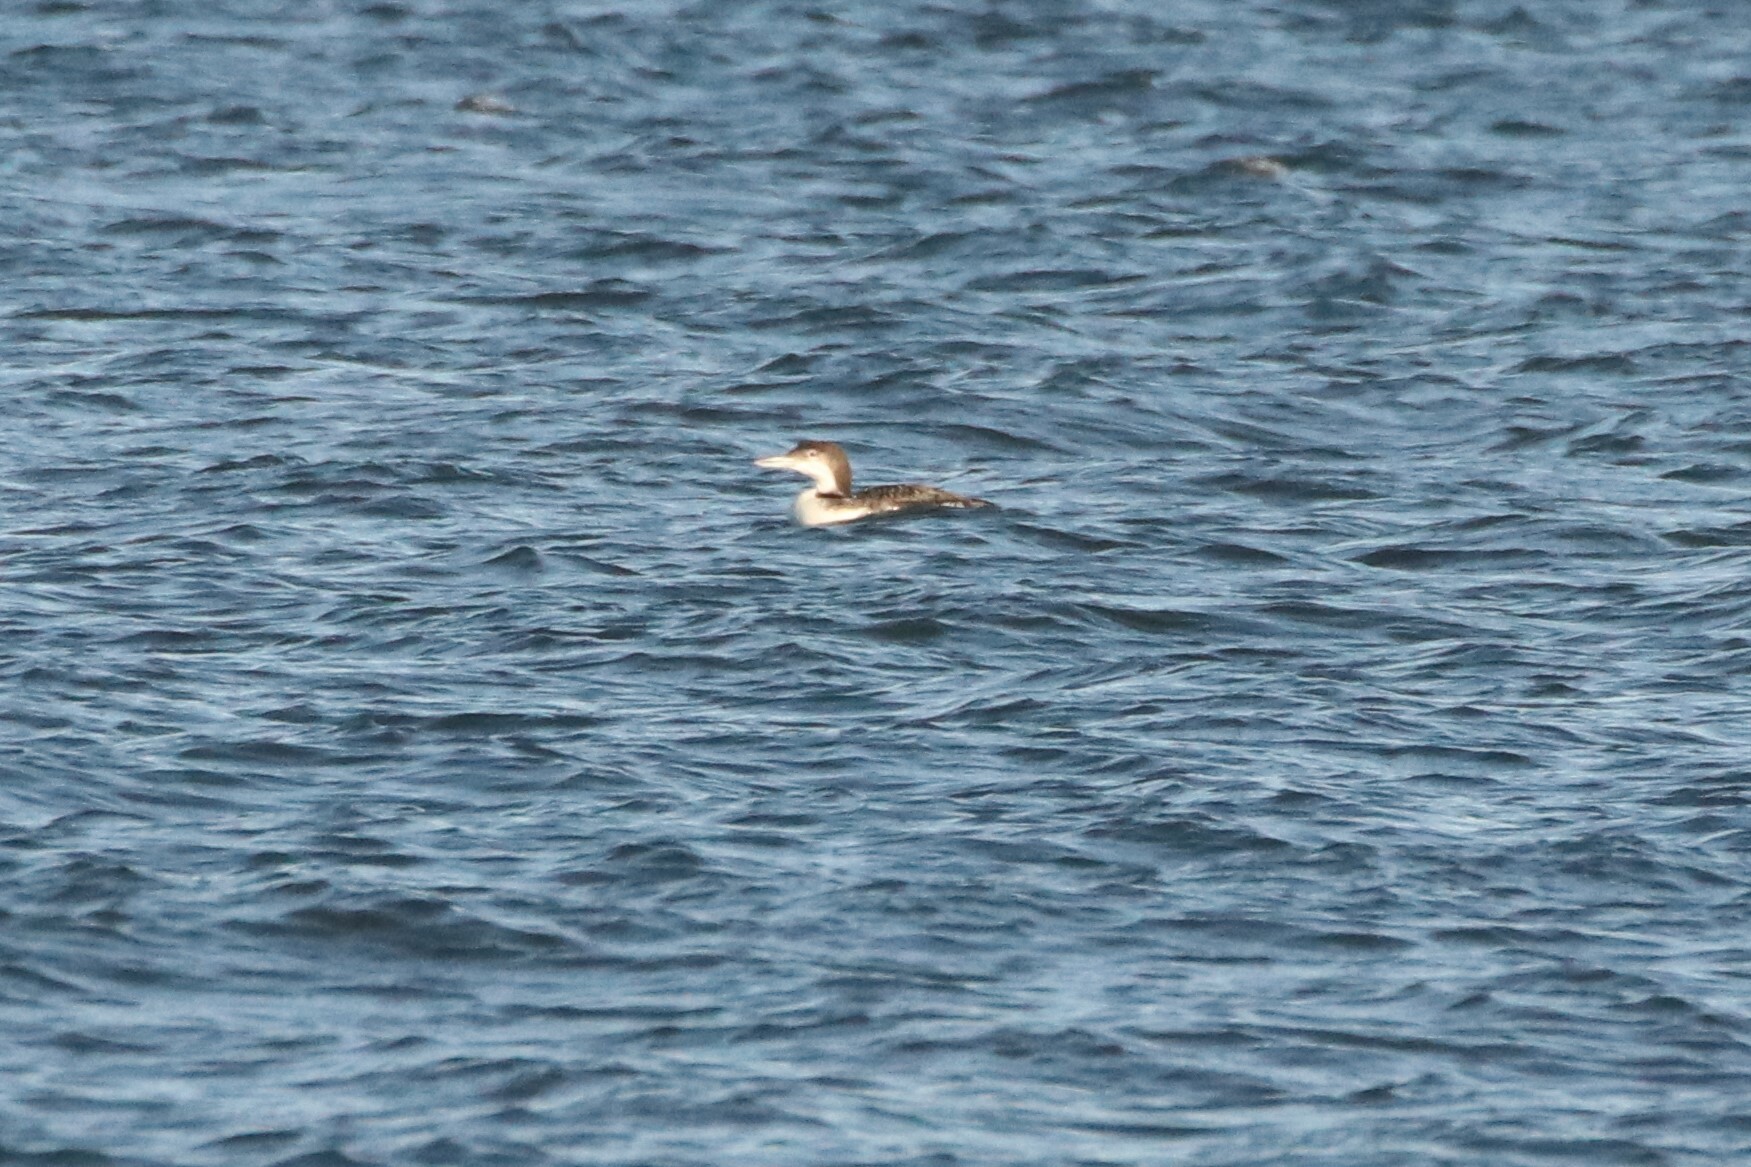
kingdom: Animalia
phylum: Chordata
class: Aves
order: Gaviiformes
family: Gaviidae
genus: Gavia
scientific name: Gavia immer
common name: Common loon
